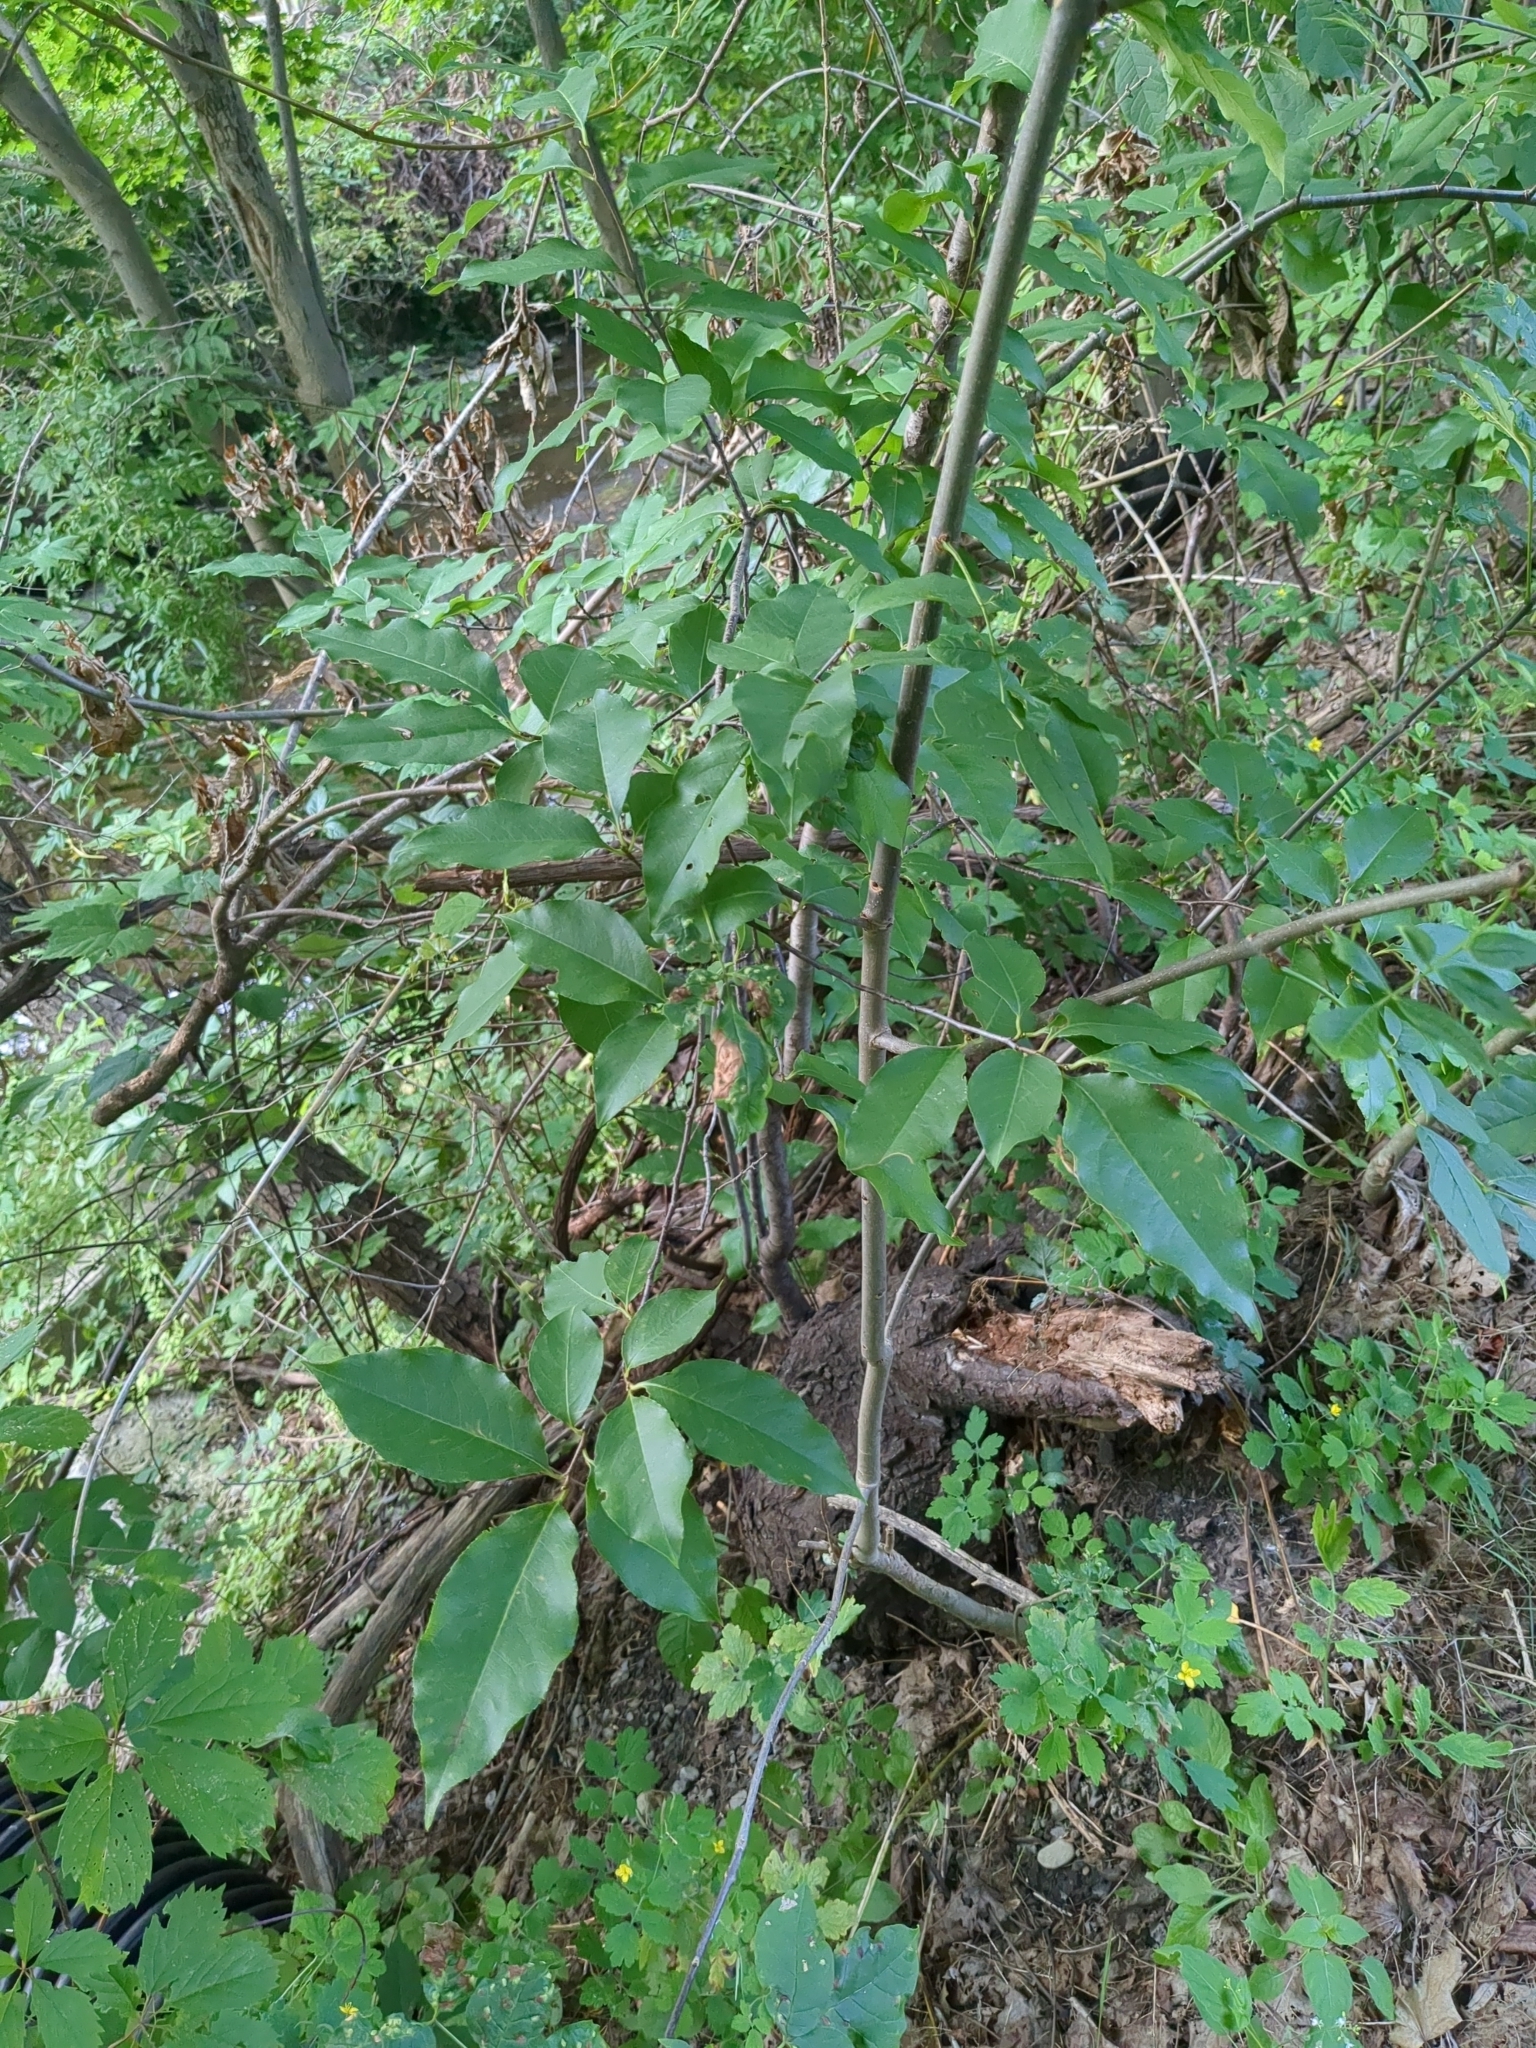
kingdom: Plantae
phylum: Tracheophyta
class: Magnoliopsida
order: Rosales
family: Rosaceae
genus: Prunus
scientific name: Prunus serotina
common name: Black cherry
